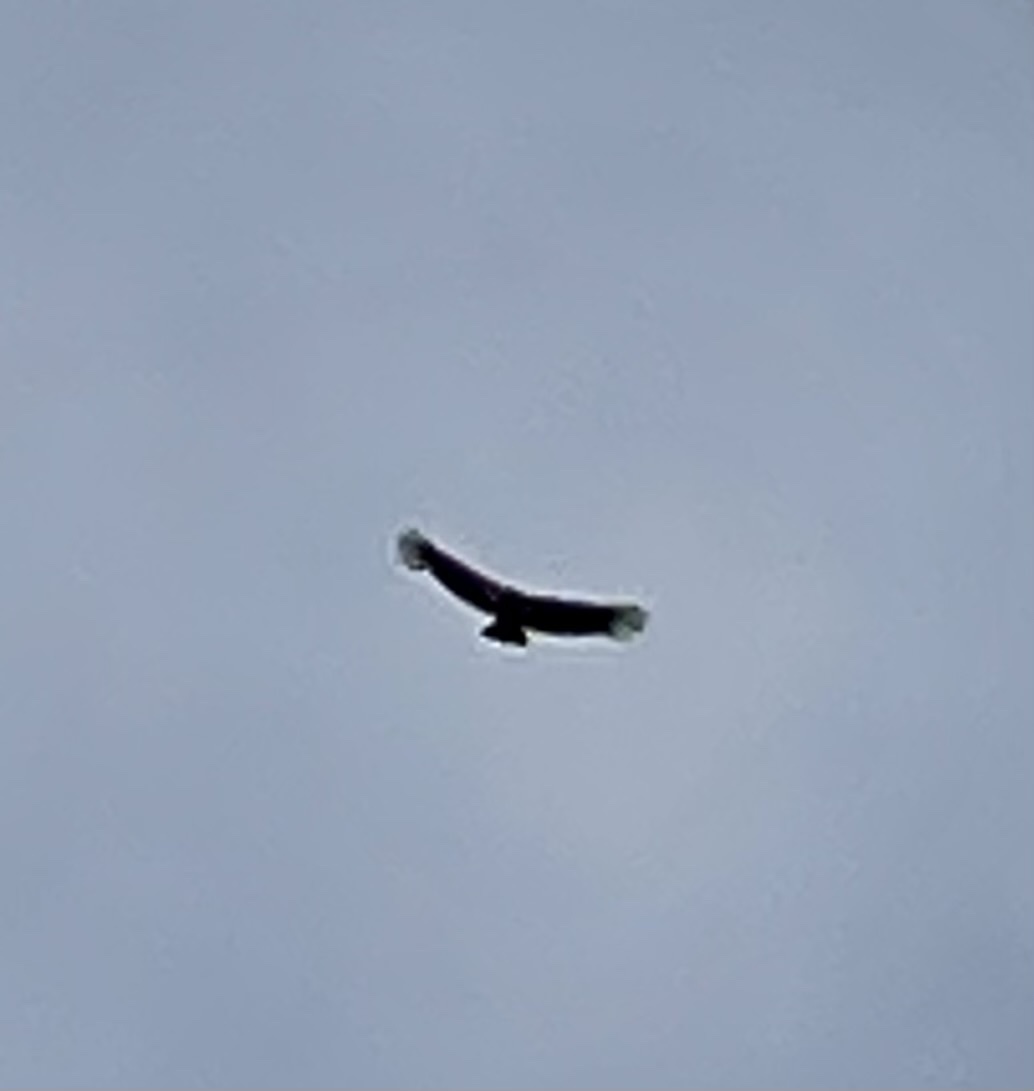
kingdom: Animalia
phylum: Chordata
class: Aves
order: Accipitriformes
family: Cathartidae
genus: Gymnogyps
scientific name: Gymnogyps californianus
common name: California condor
